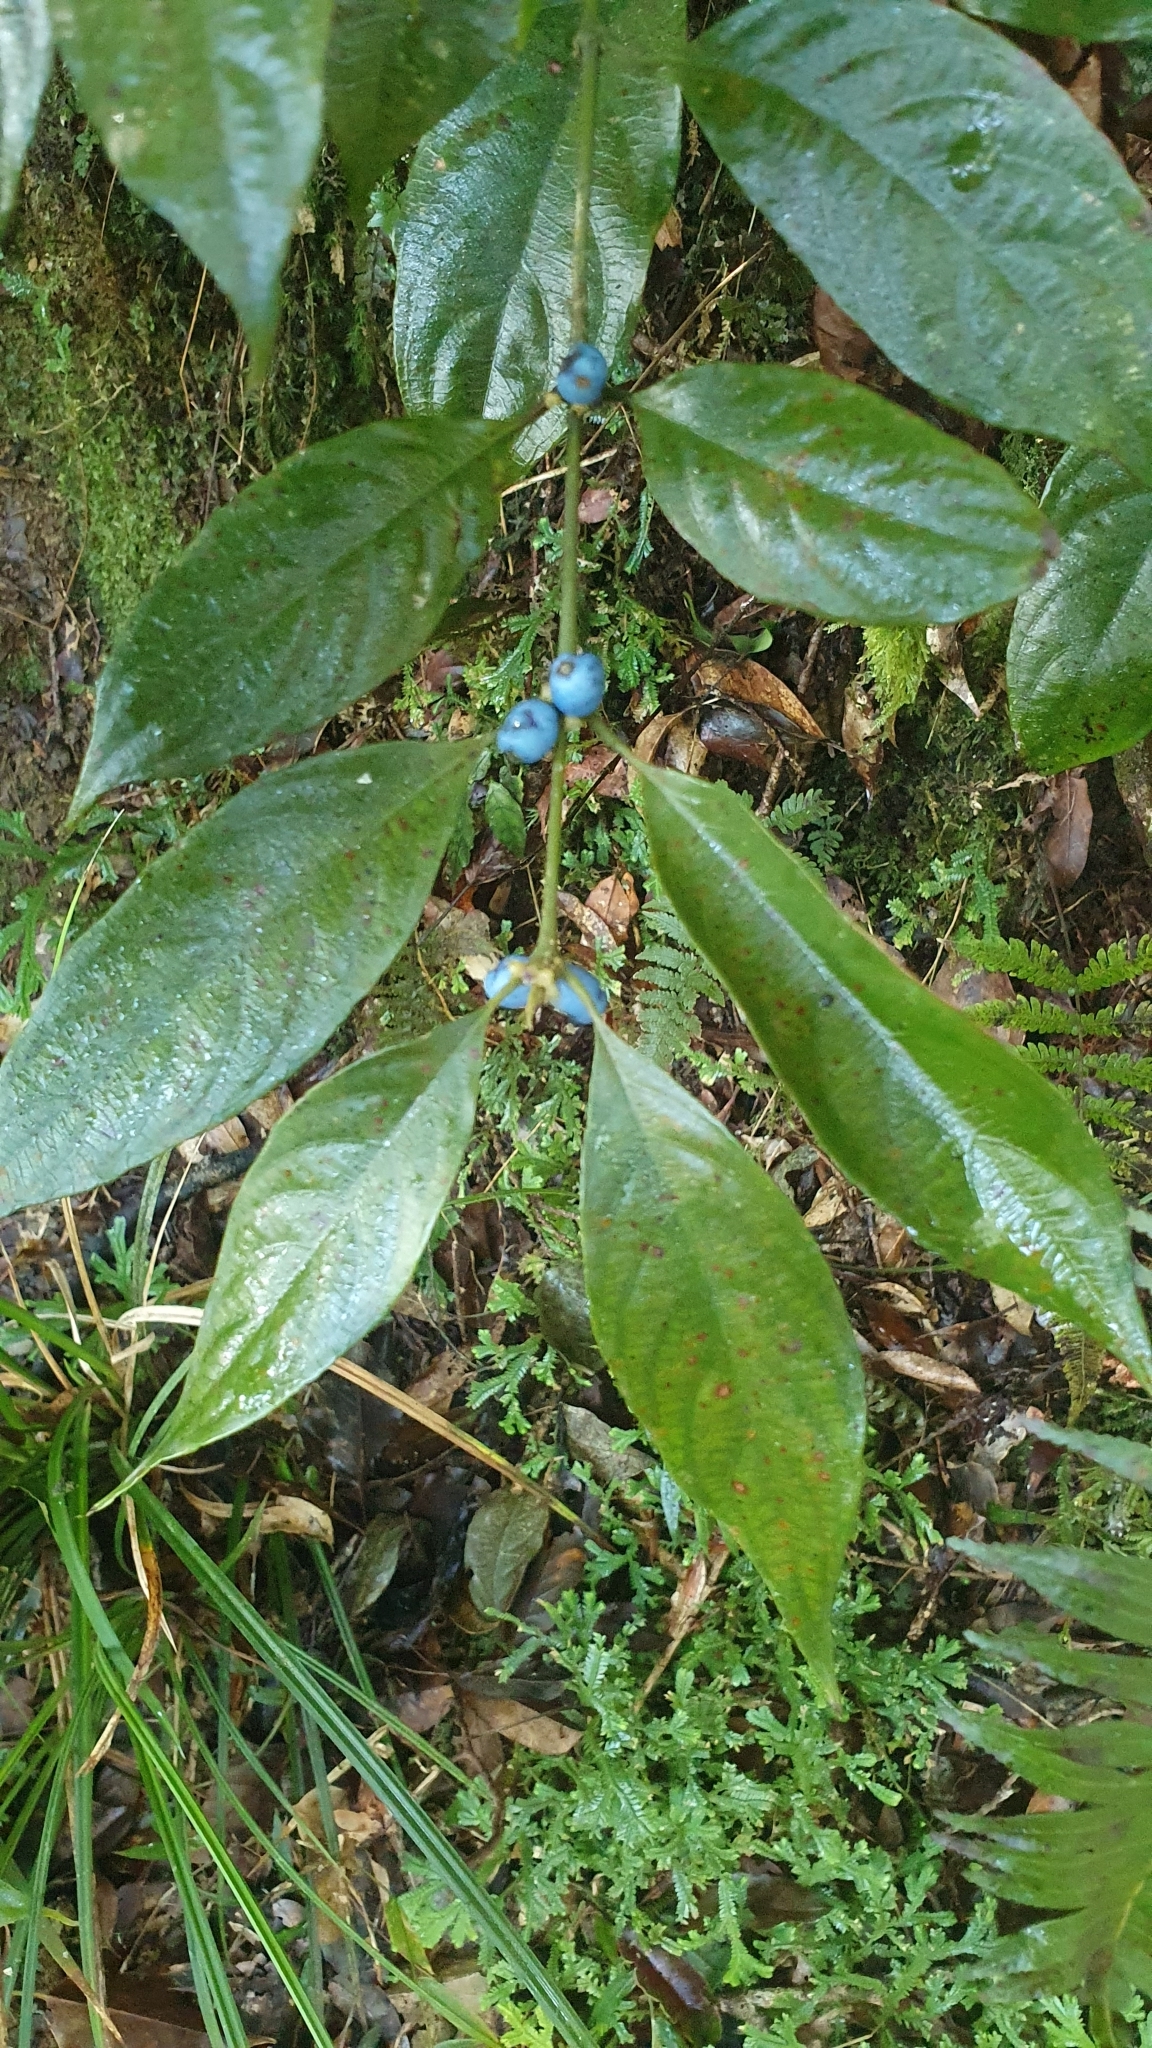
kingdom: Plantae
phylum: Tracheophyta
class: Magnoliopsida
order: Gentianales
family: Rubiaceae
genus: Lasianthus
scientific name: Lasianthus fordii
